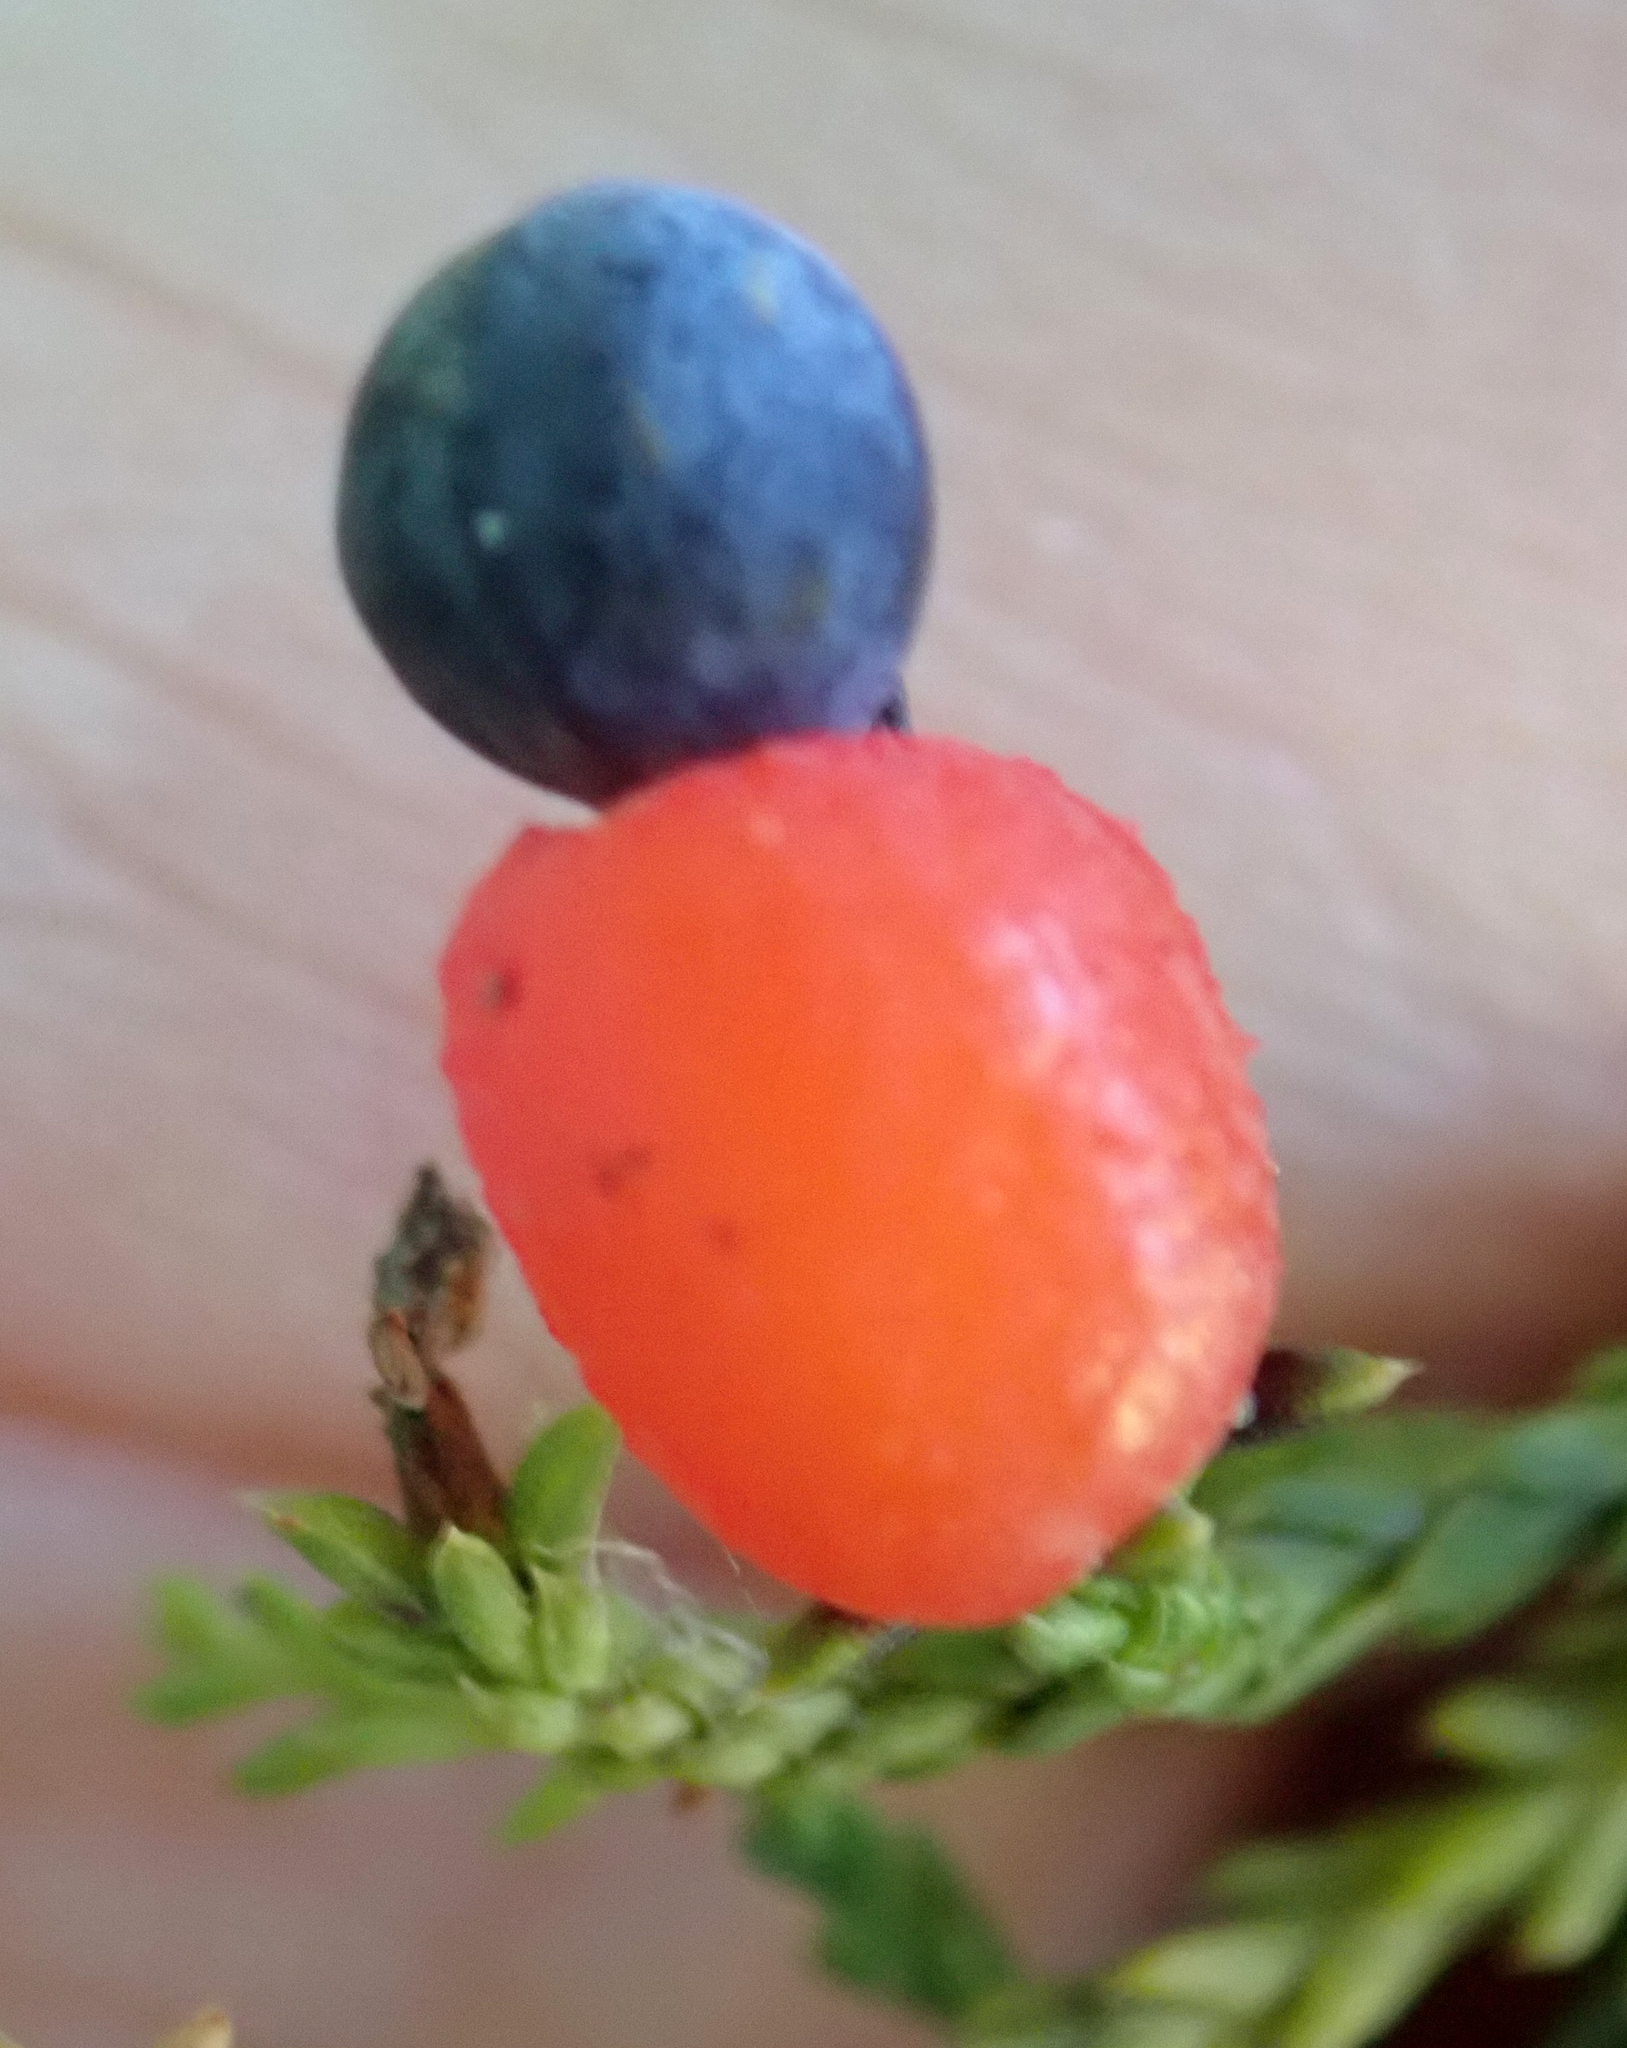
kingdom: Plantae
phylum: Tracheophyta
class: Pinopsida
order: Pinales
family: Podocarpaceae
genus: Dacrycarpus
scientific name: Dacrycarpus dacrydioides
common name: White pine
